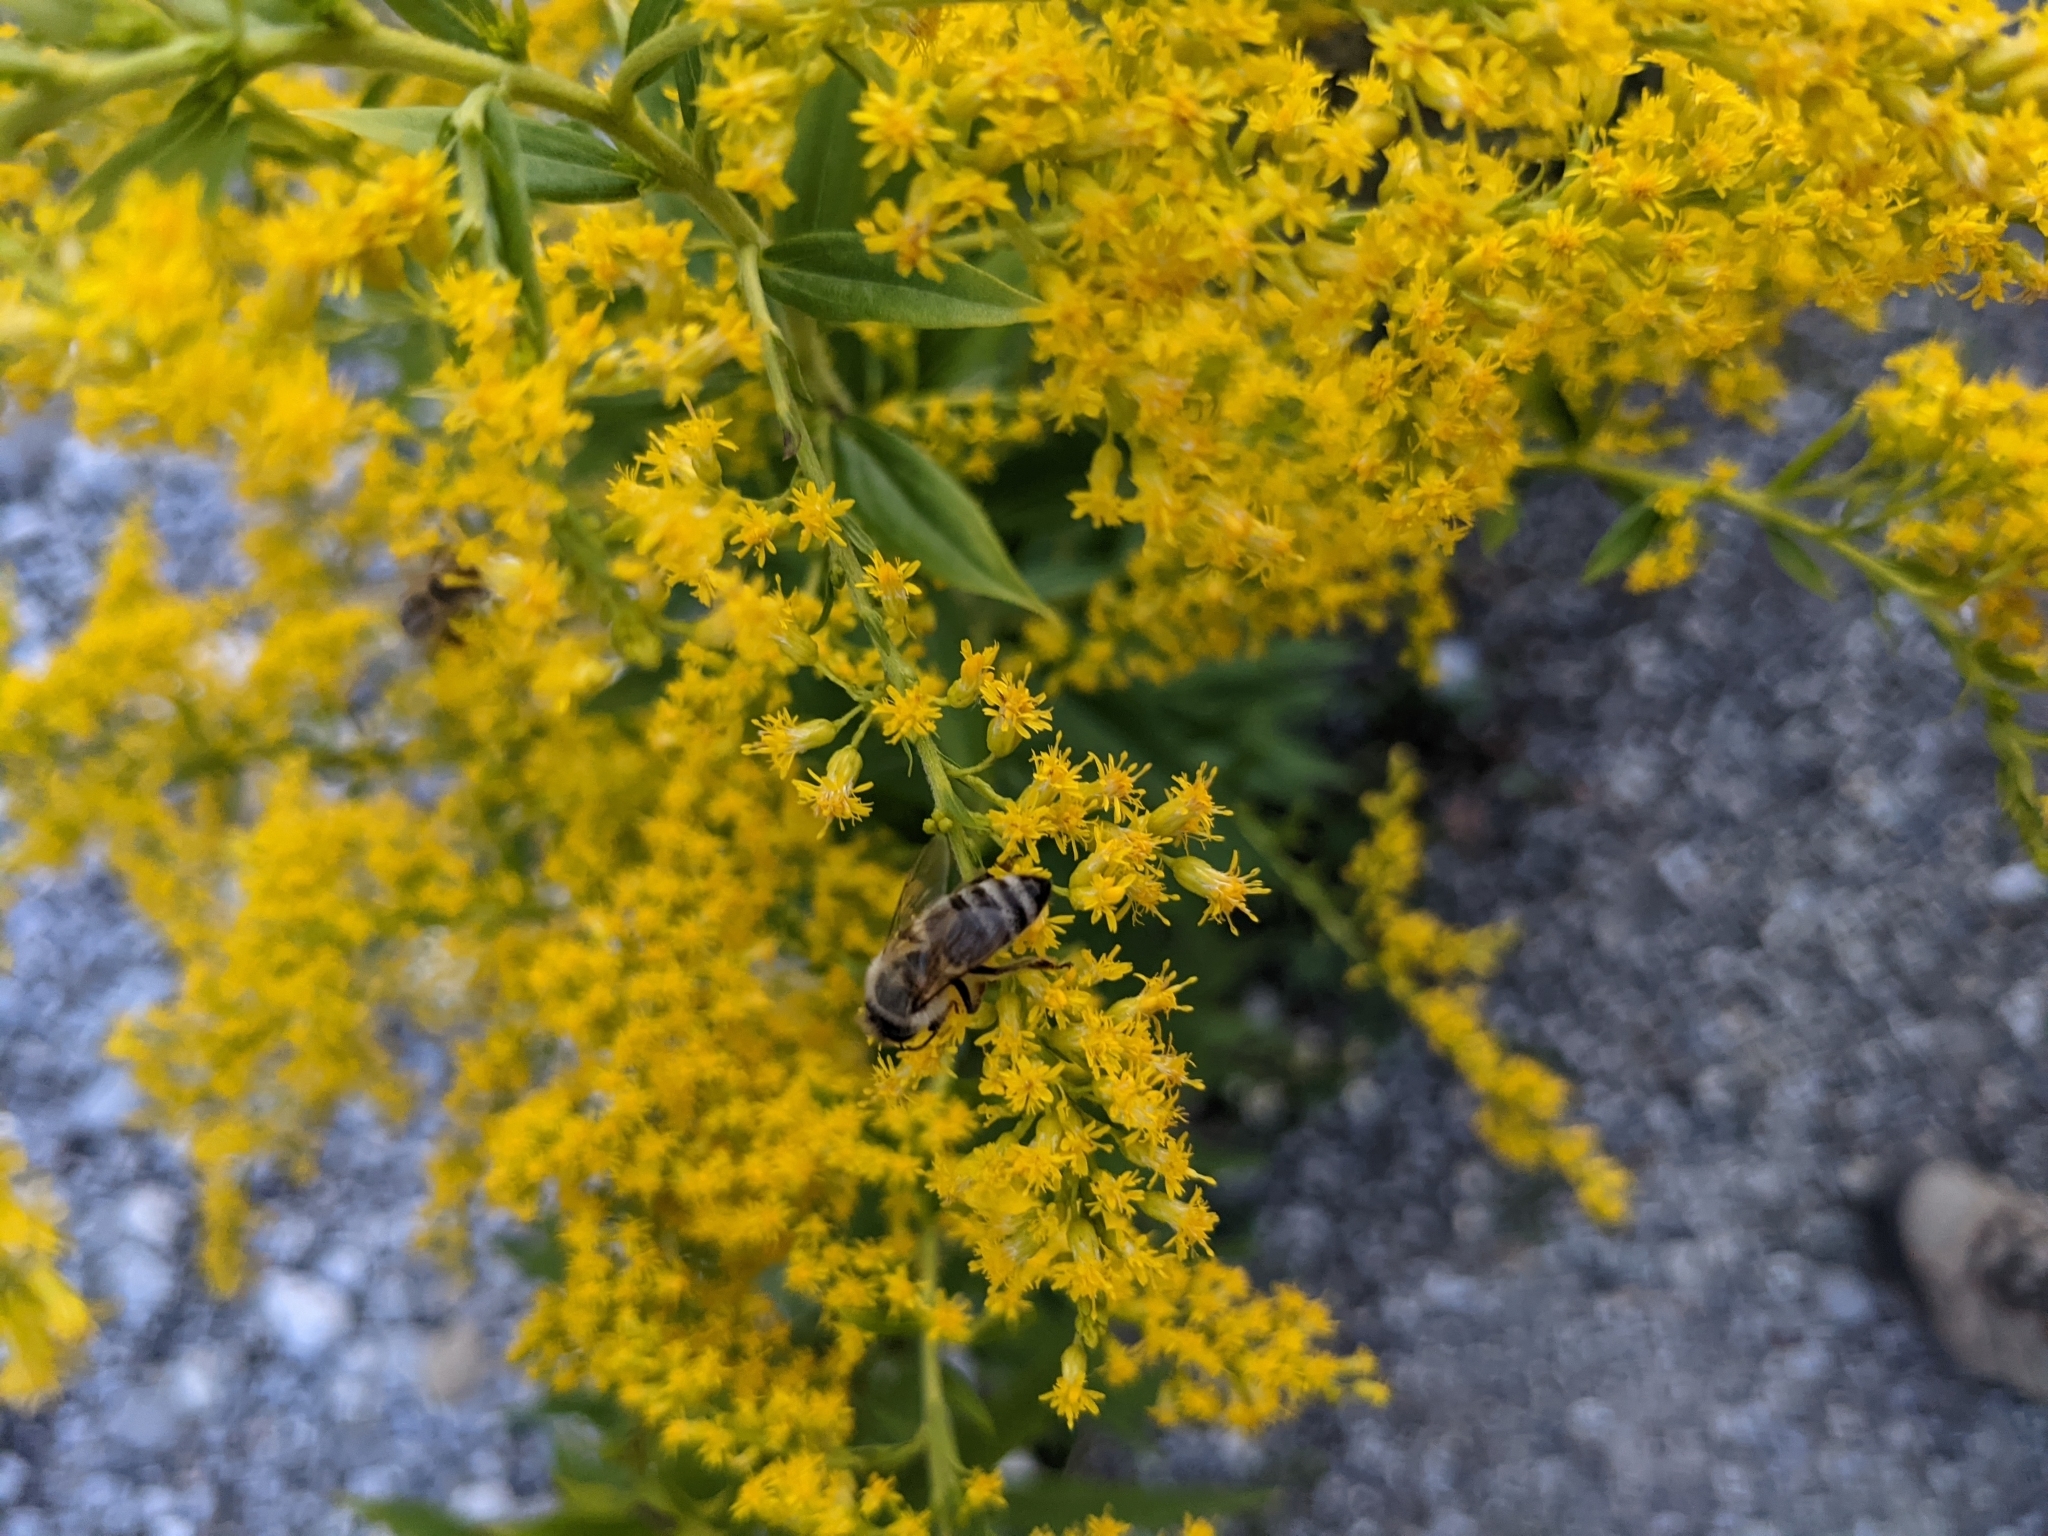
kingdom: Animalia
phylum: Arthropoda
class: Insecta
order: Hymenoptera
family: Apidae
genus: Apis
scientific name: Apis mellifera
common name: Honey bee
